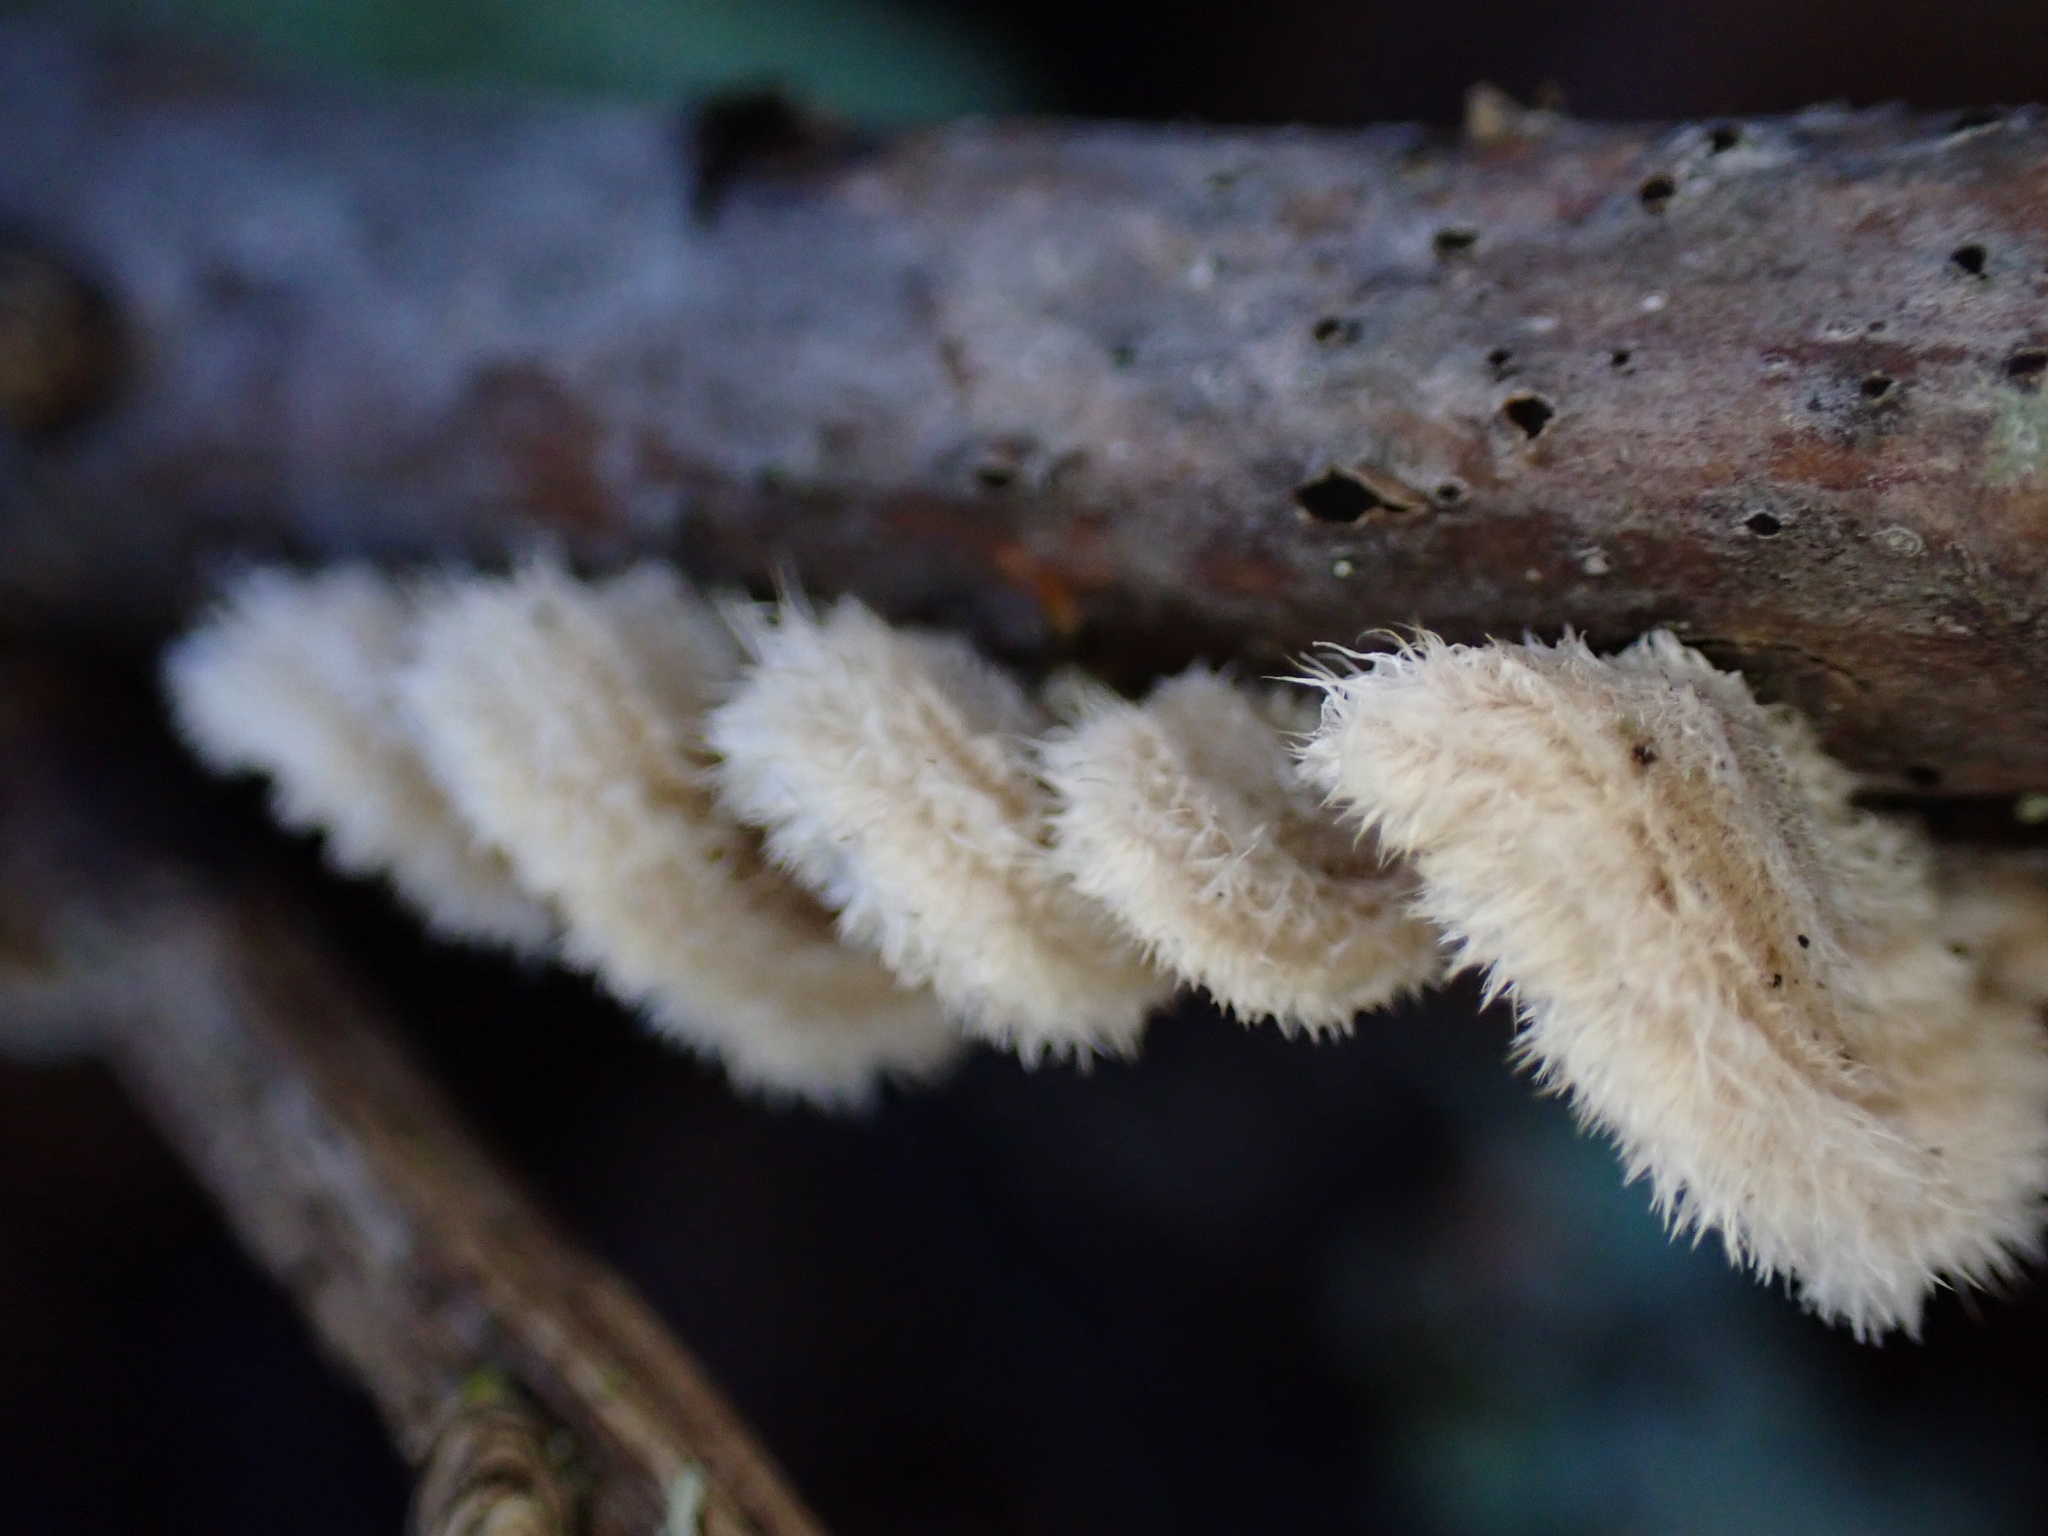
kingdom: Fungi
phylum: Basidiomycota
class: Agaricomycetes
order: Russulales
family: Stereaceae
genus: Stereum
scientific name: Stereum ochraceoflavum
